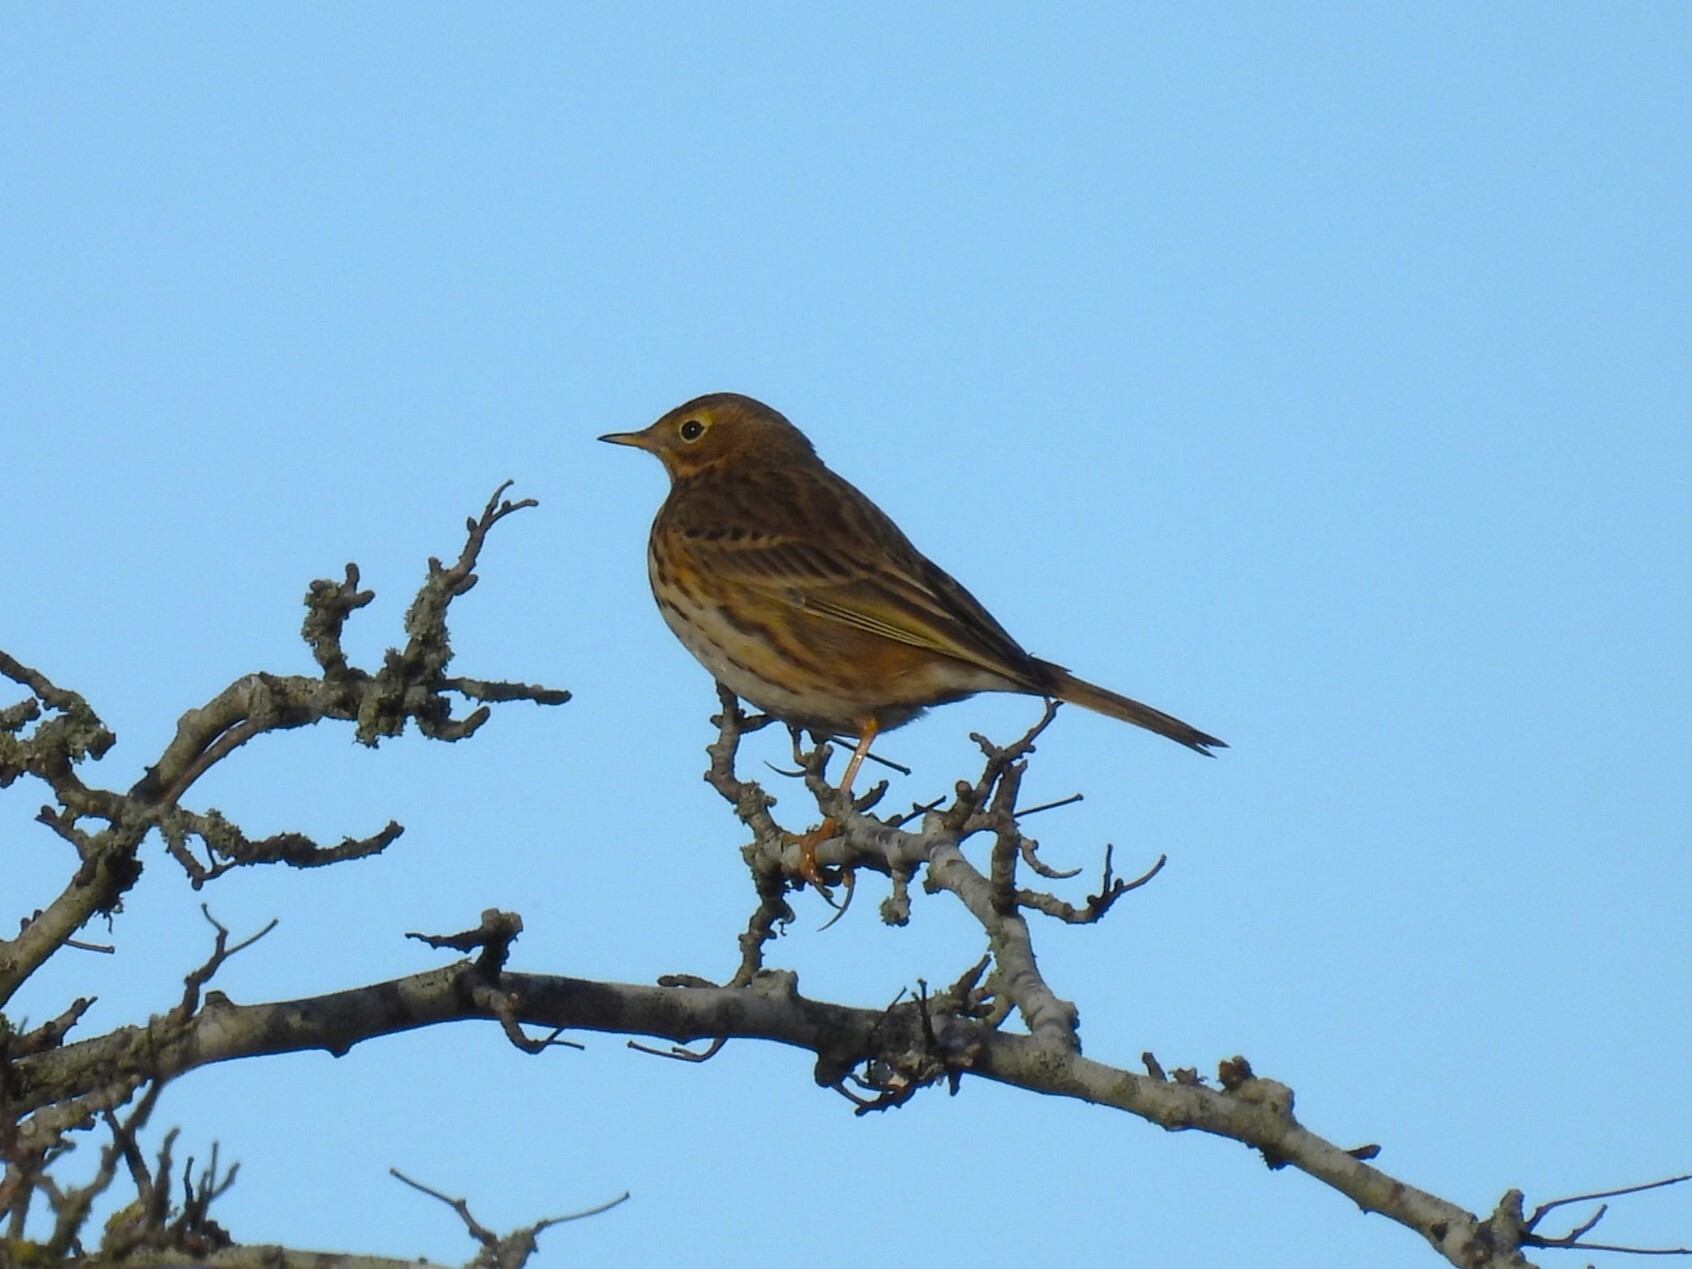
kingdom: Animalia
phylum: Chordata
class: Aves
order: Passeriformes
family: Motacillidae
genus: Anthus
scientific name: Anthus pratensis
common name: Meadow pipit
